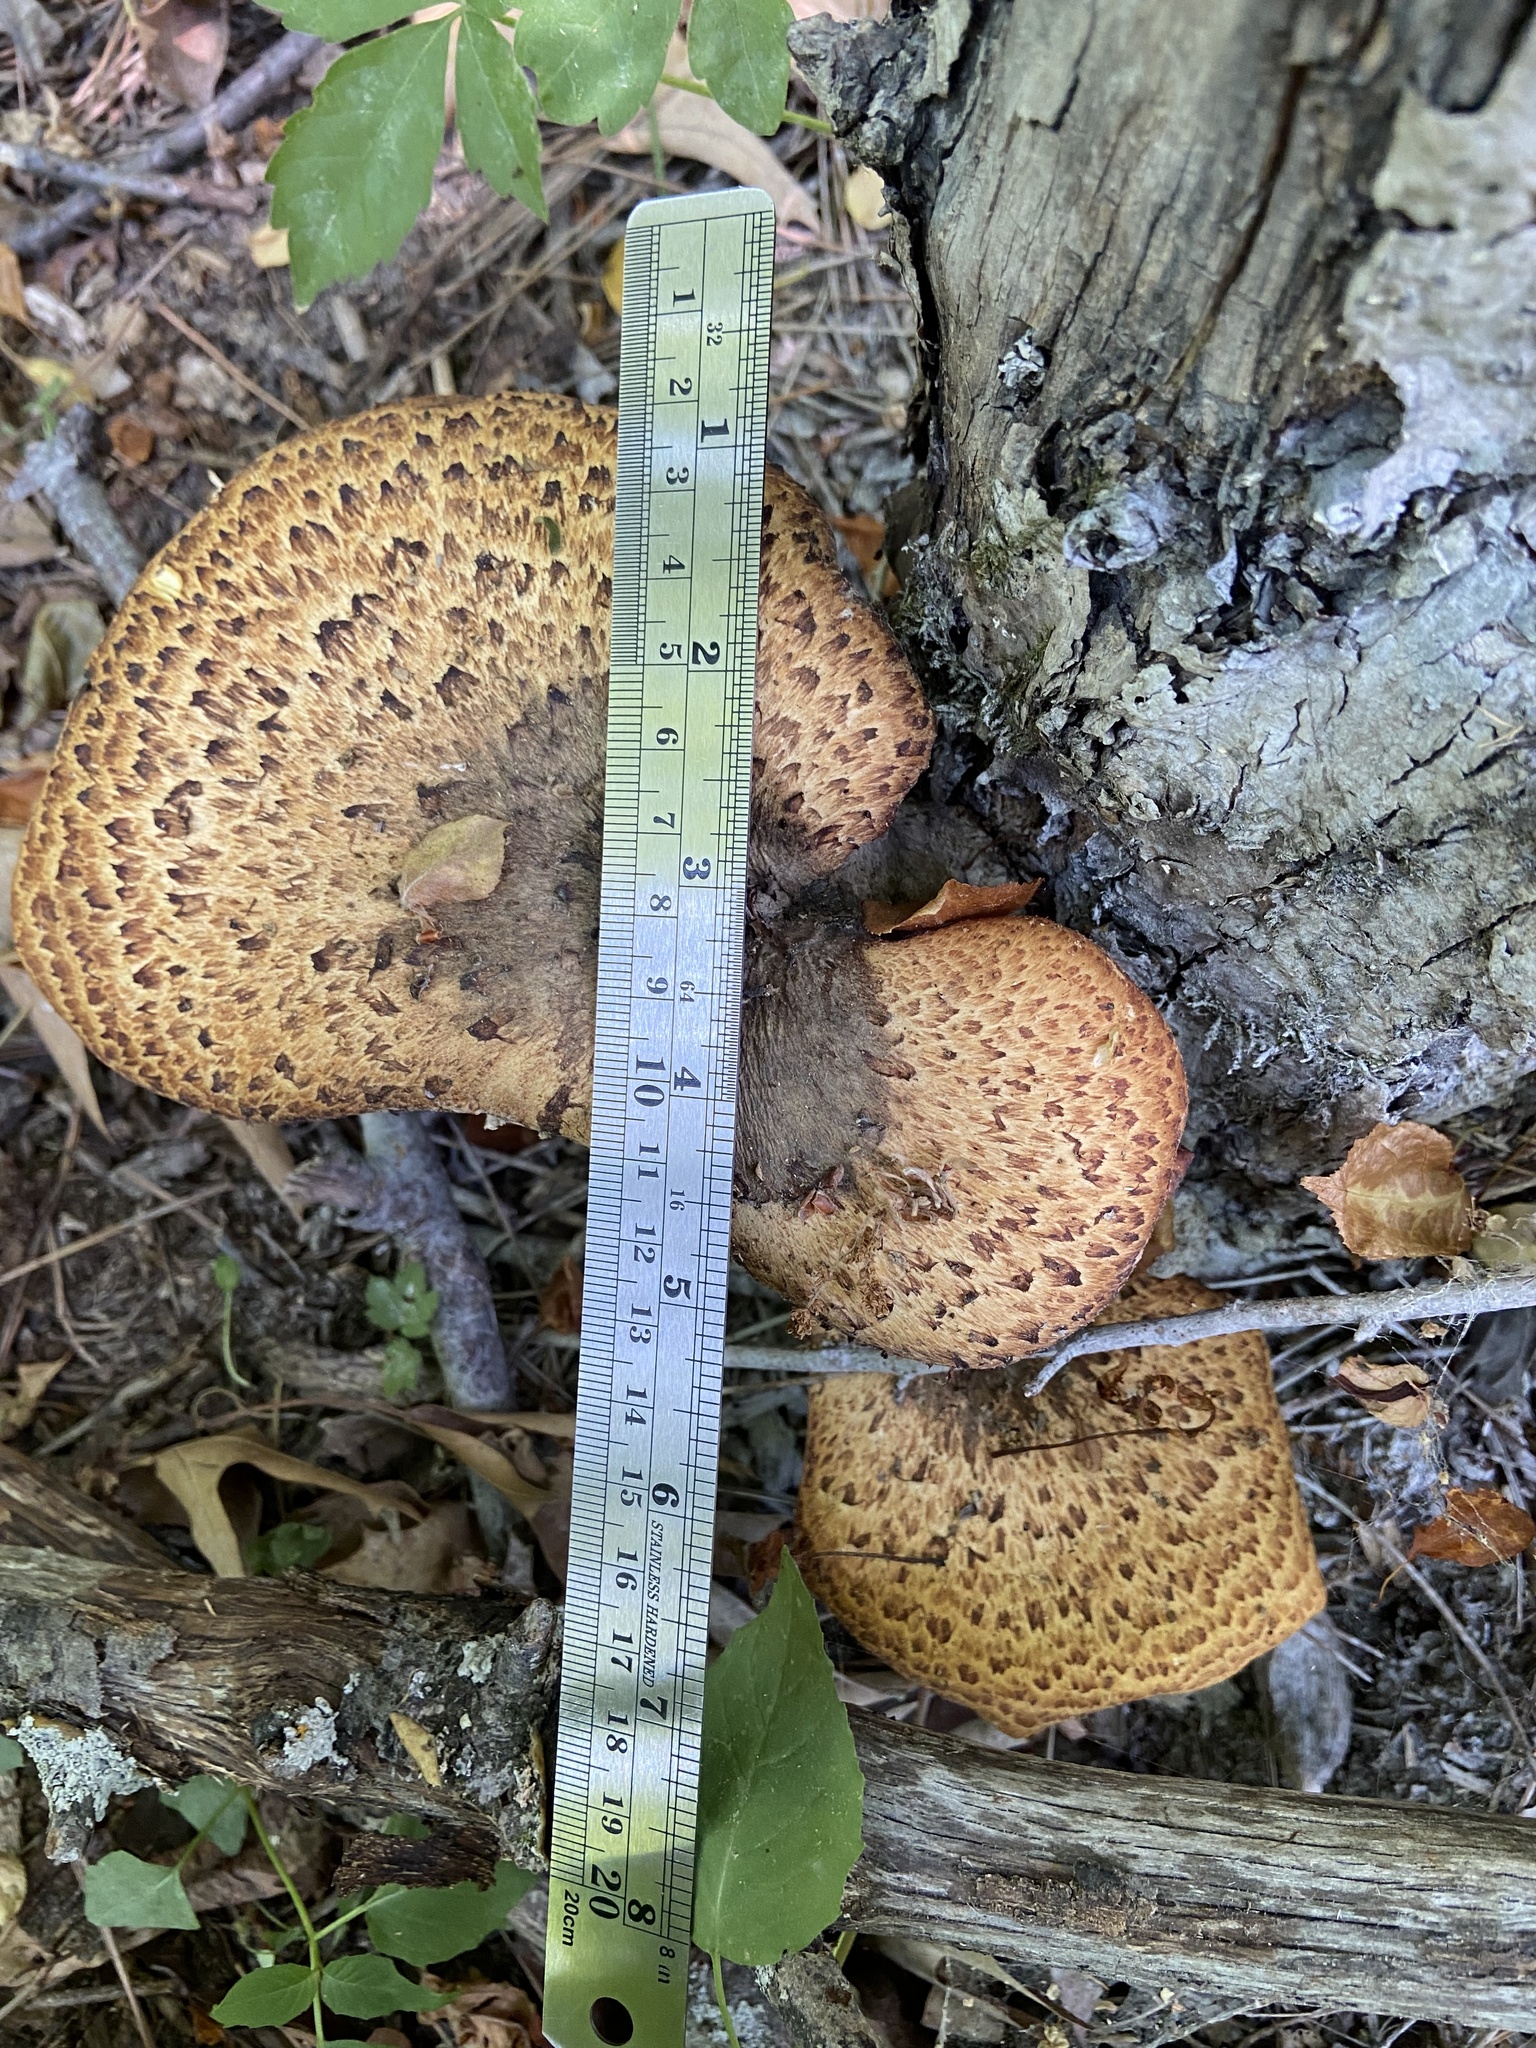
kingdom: Fungi
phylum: Basidiomycota
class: Agaricomycetes
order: Polyporales
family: Polyporaceae
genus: Cerioporus
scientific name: Cerioporus squamosus
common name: Dryad's saddle
